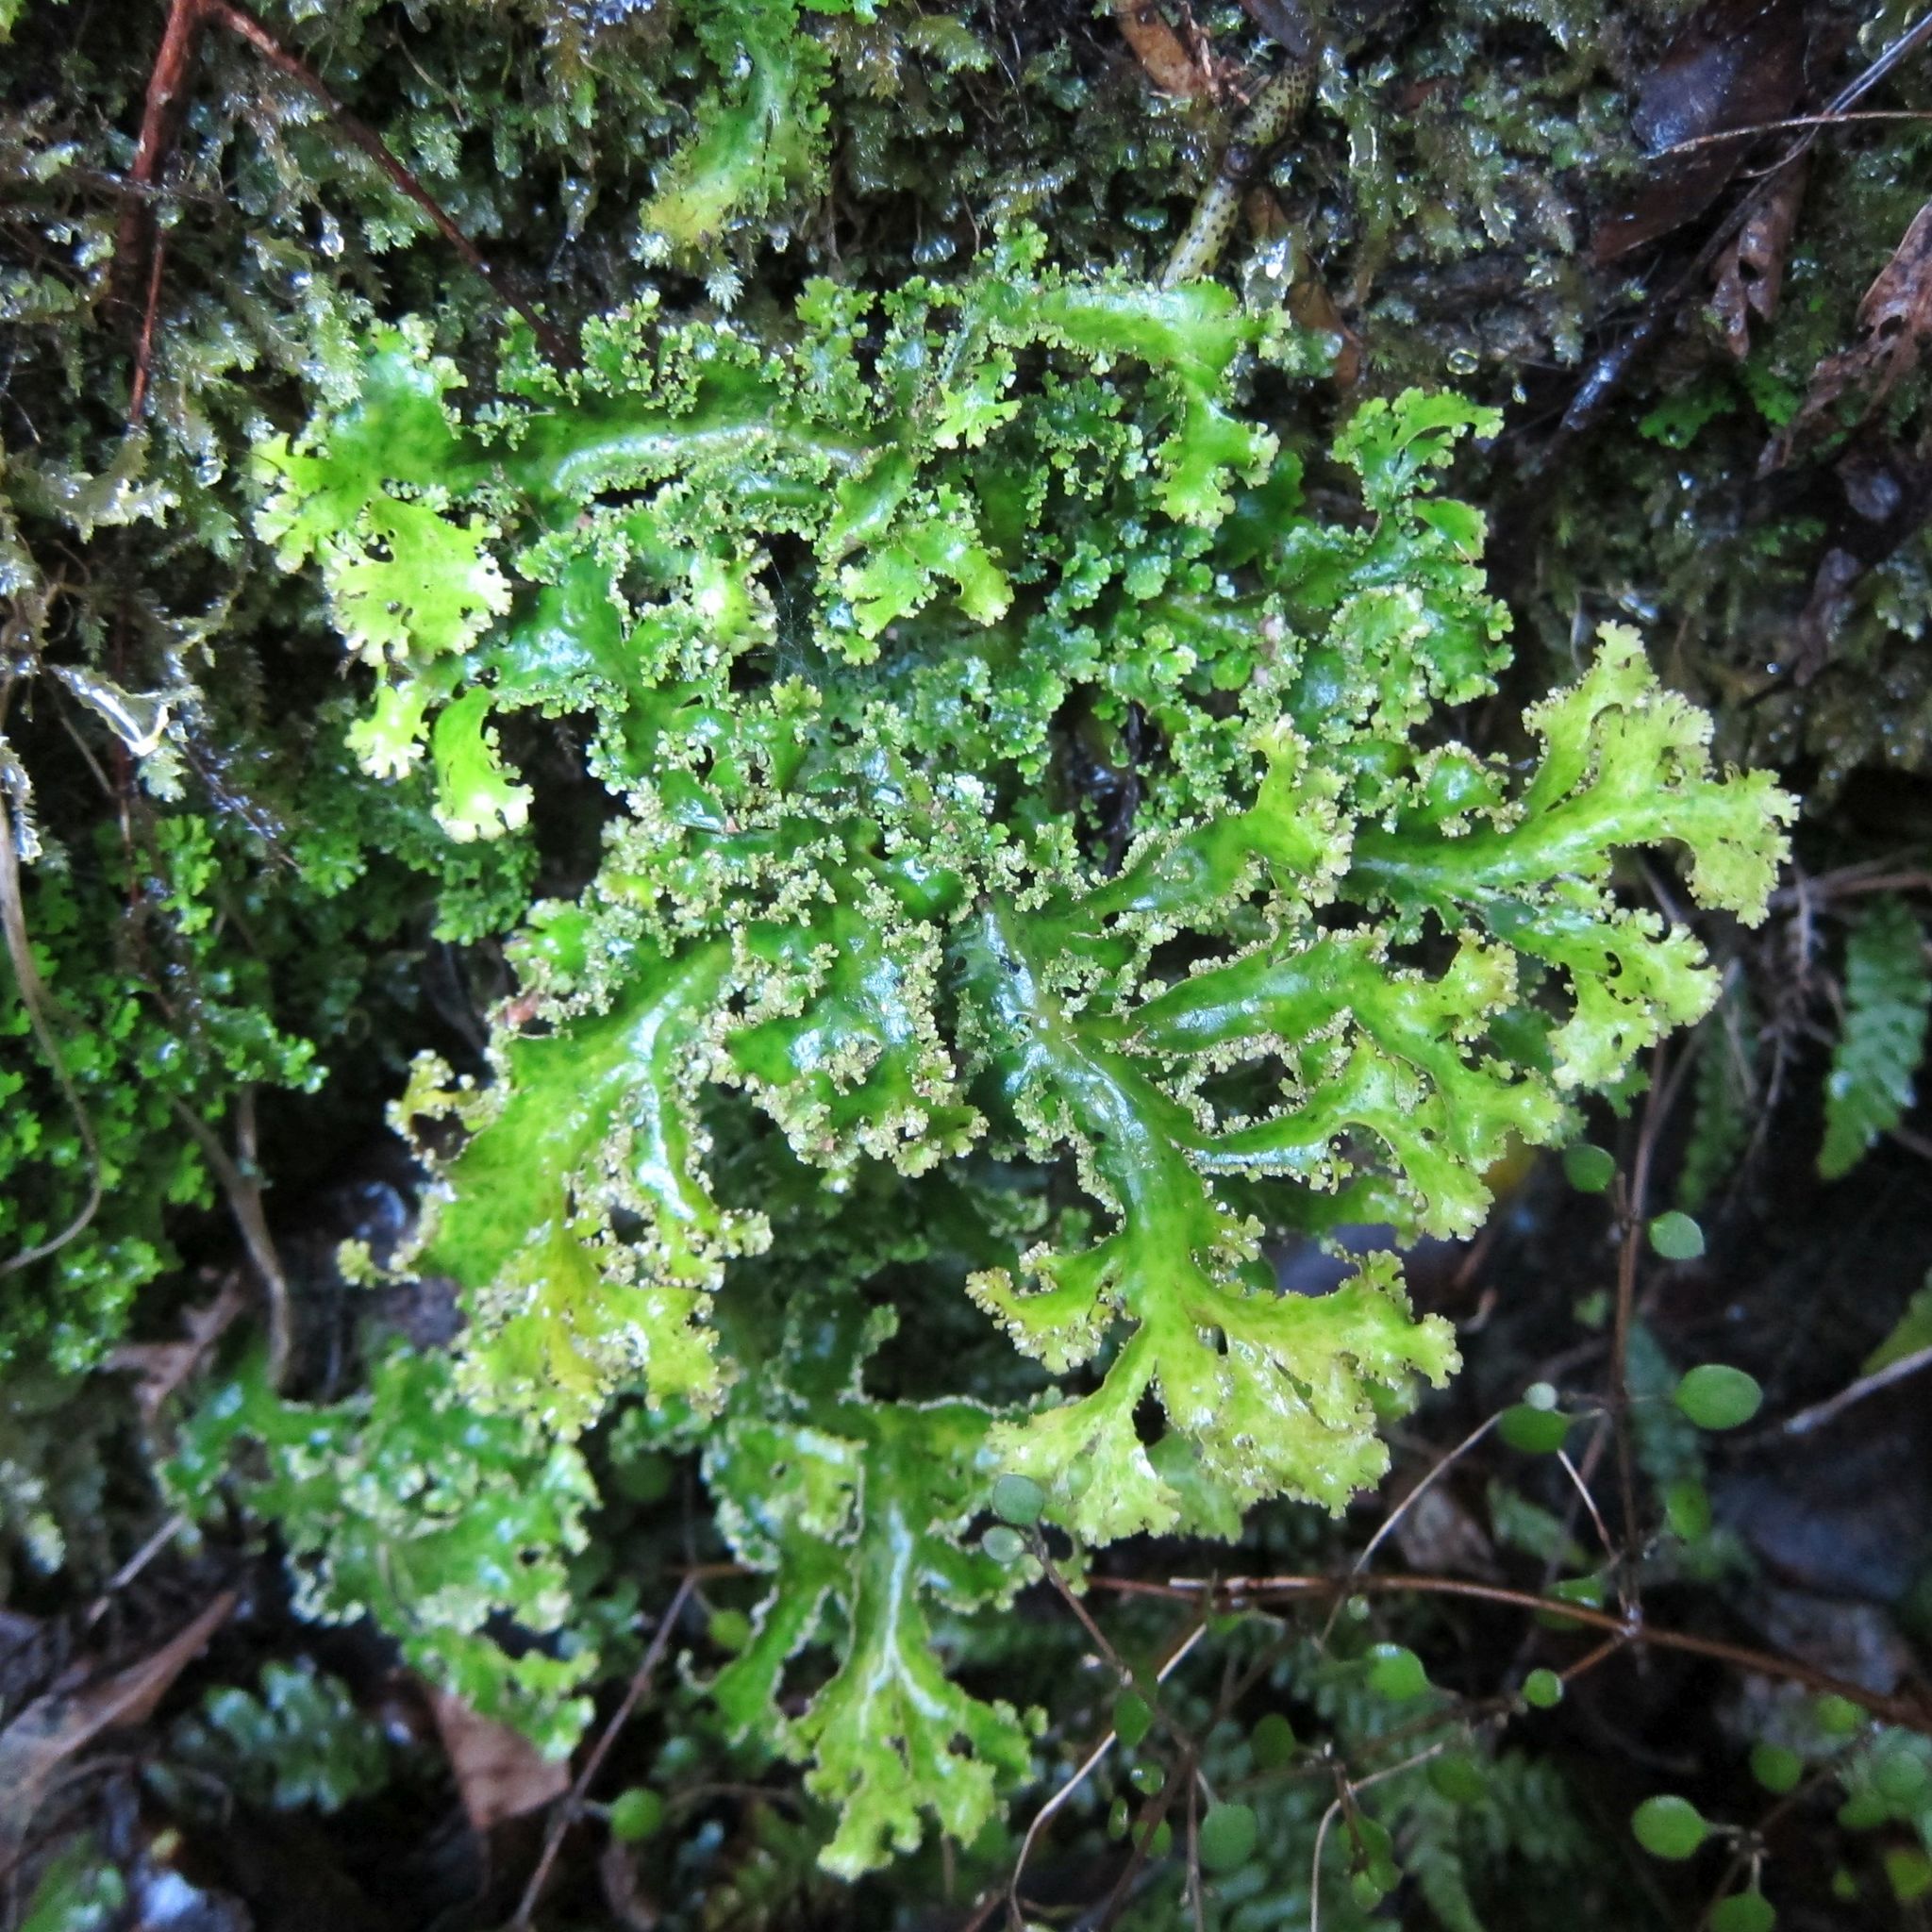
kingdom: Fungi
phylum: Ascomycota
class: Lecanoromycetes
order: Peltigerales
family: Lobariaceae
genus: Sticta
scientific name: Sticta filix
